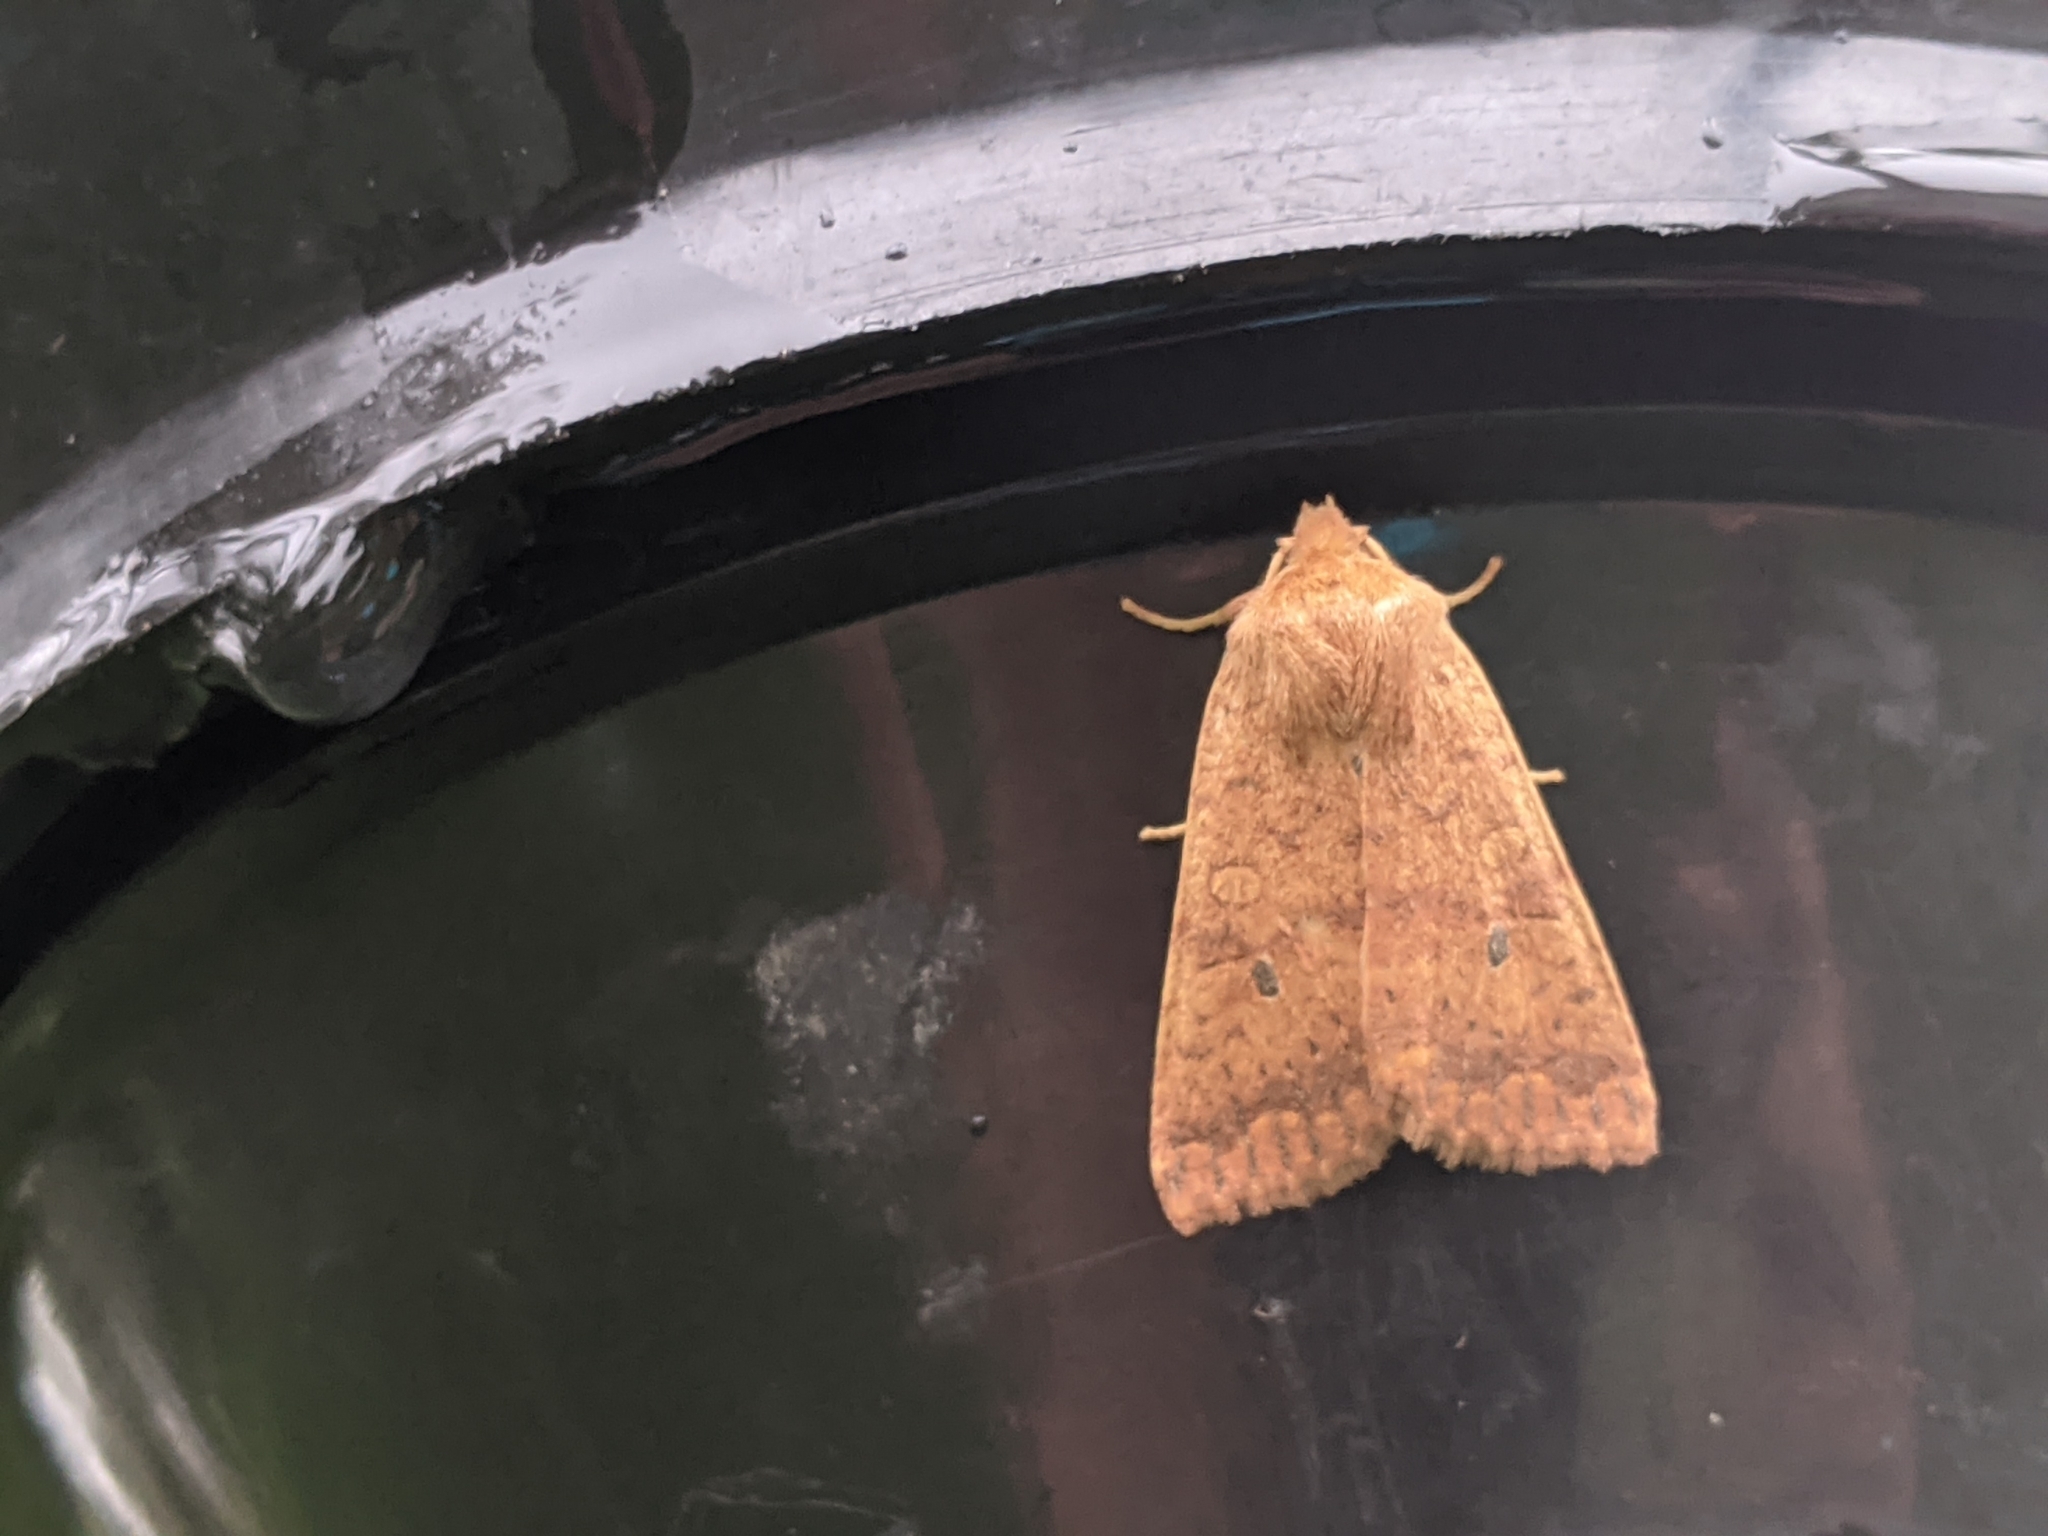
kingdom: Animalia
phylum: Arthropoda
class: Insecta
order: Lepidoptera
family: Noctuidae
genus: Agrochola
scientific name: Agrochola bicolorago
